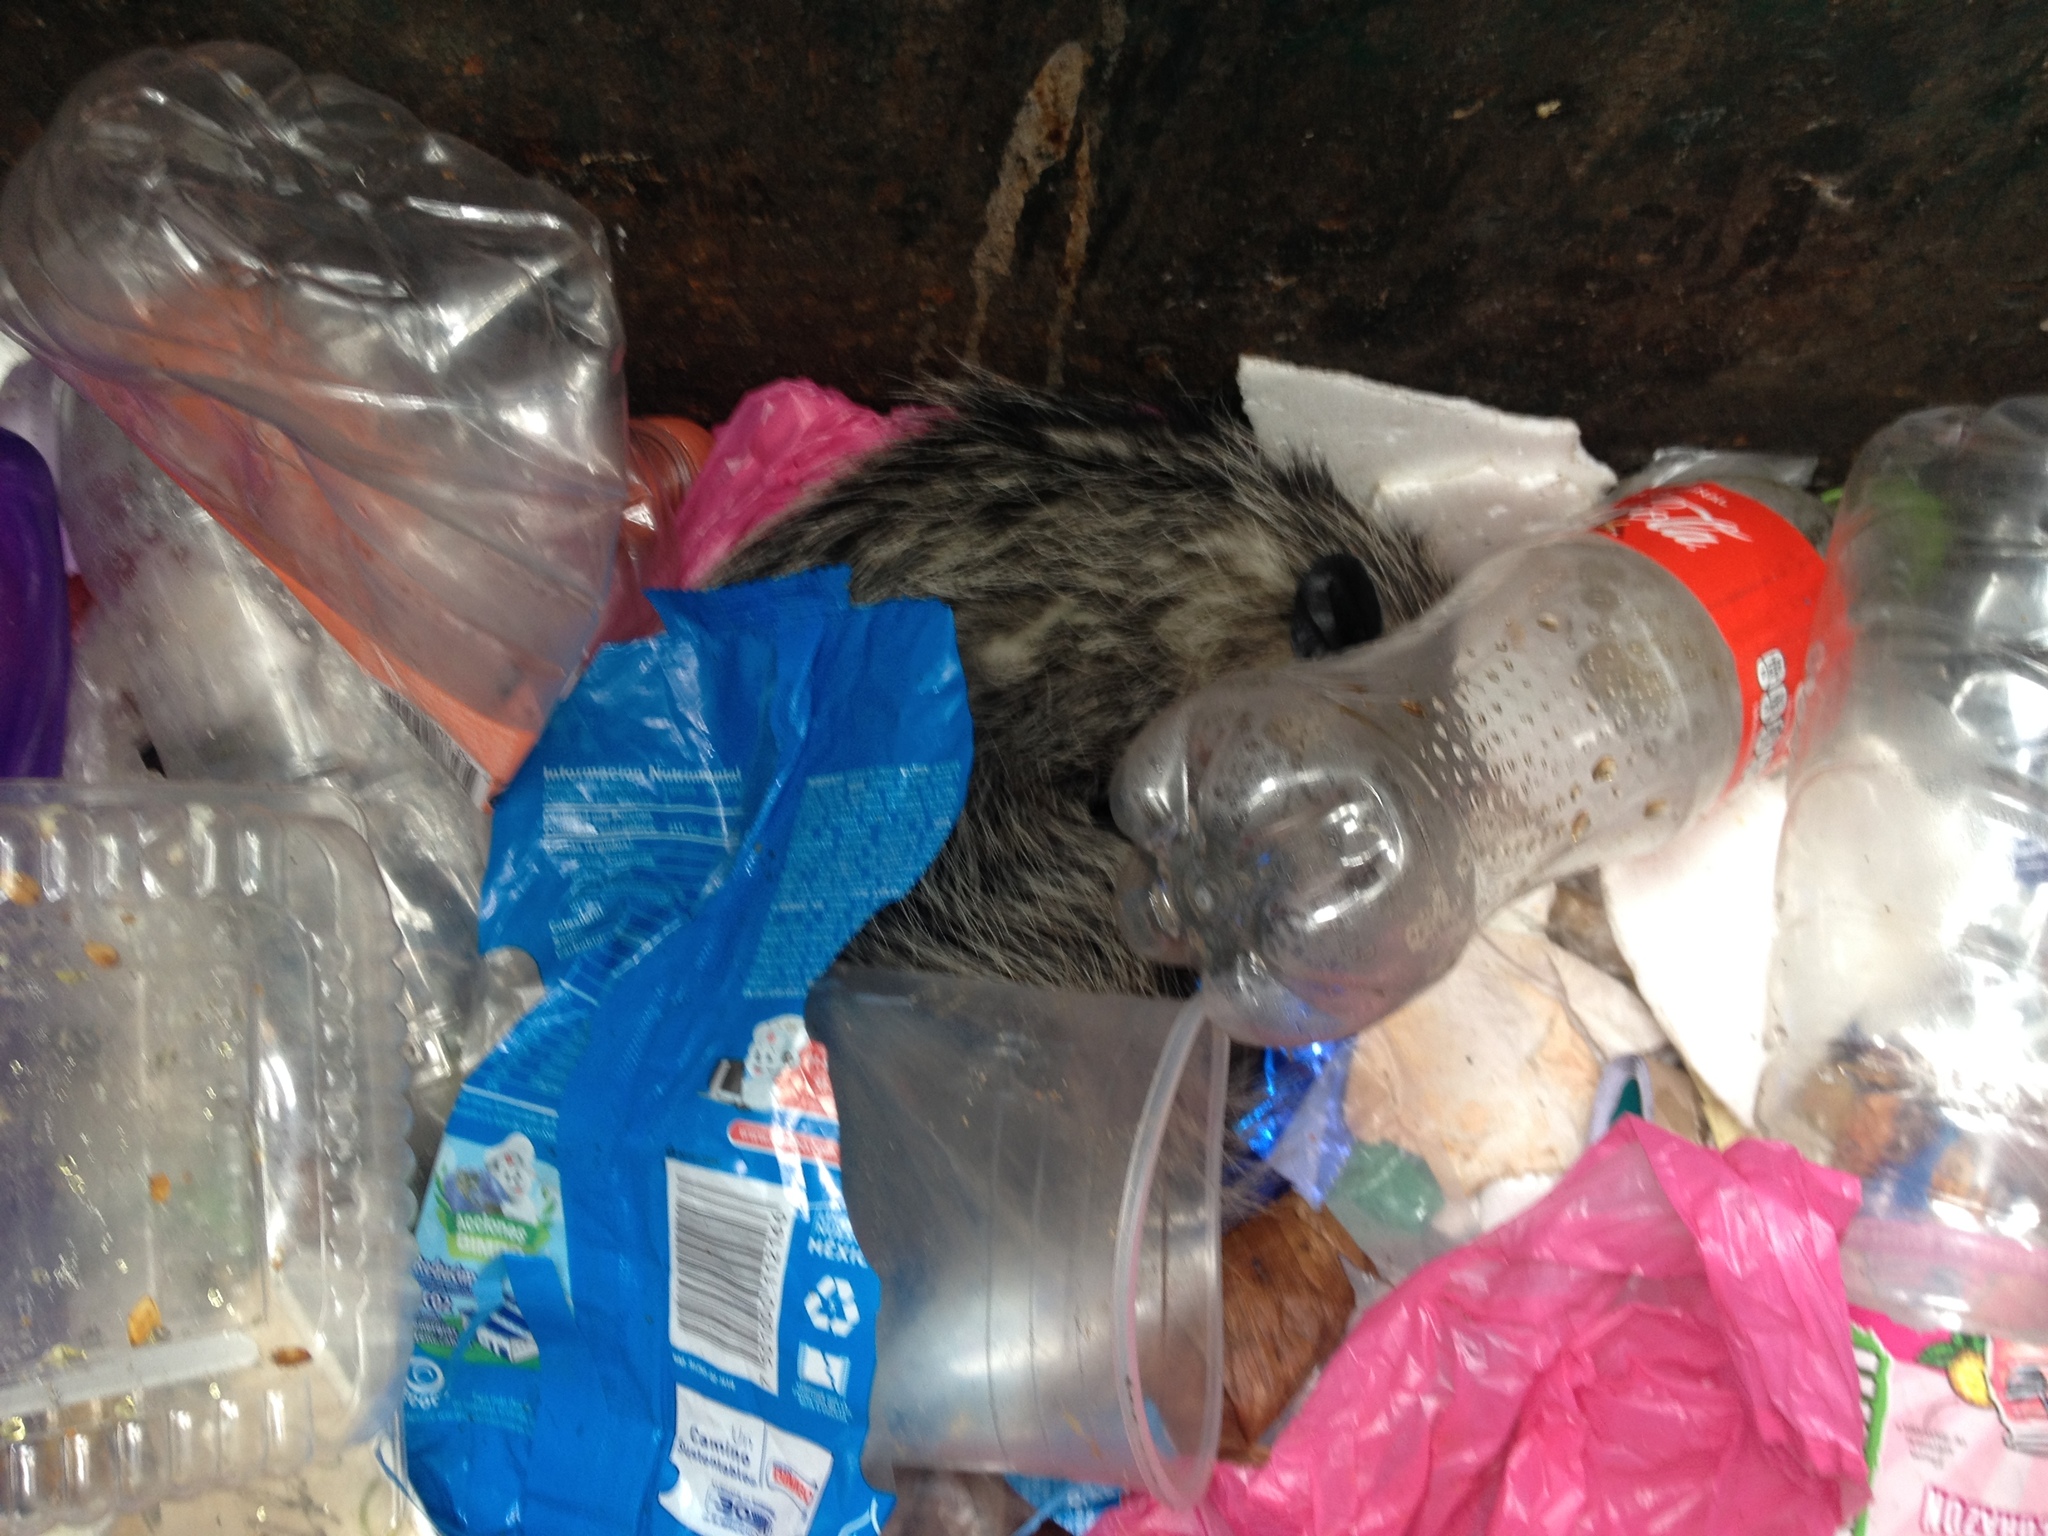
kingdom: Animalia
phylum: Chordata
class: Mammalia
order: Didelphimorphia
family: Didelphidae
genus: Didelphis
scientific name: Didelphis virginiana
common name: Virginia opossum
